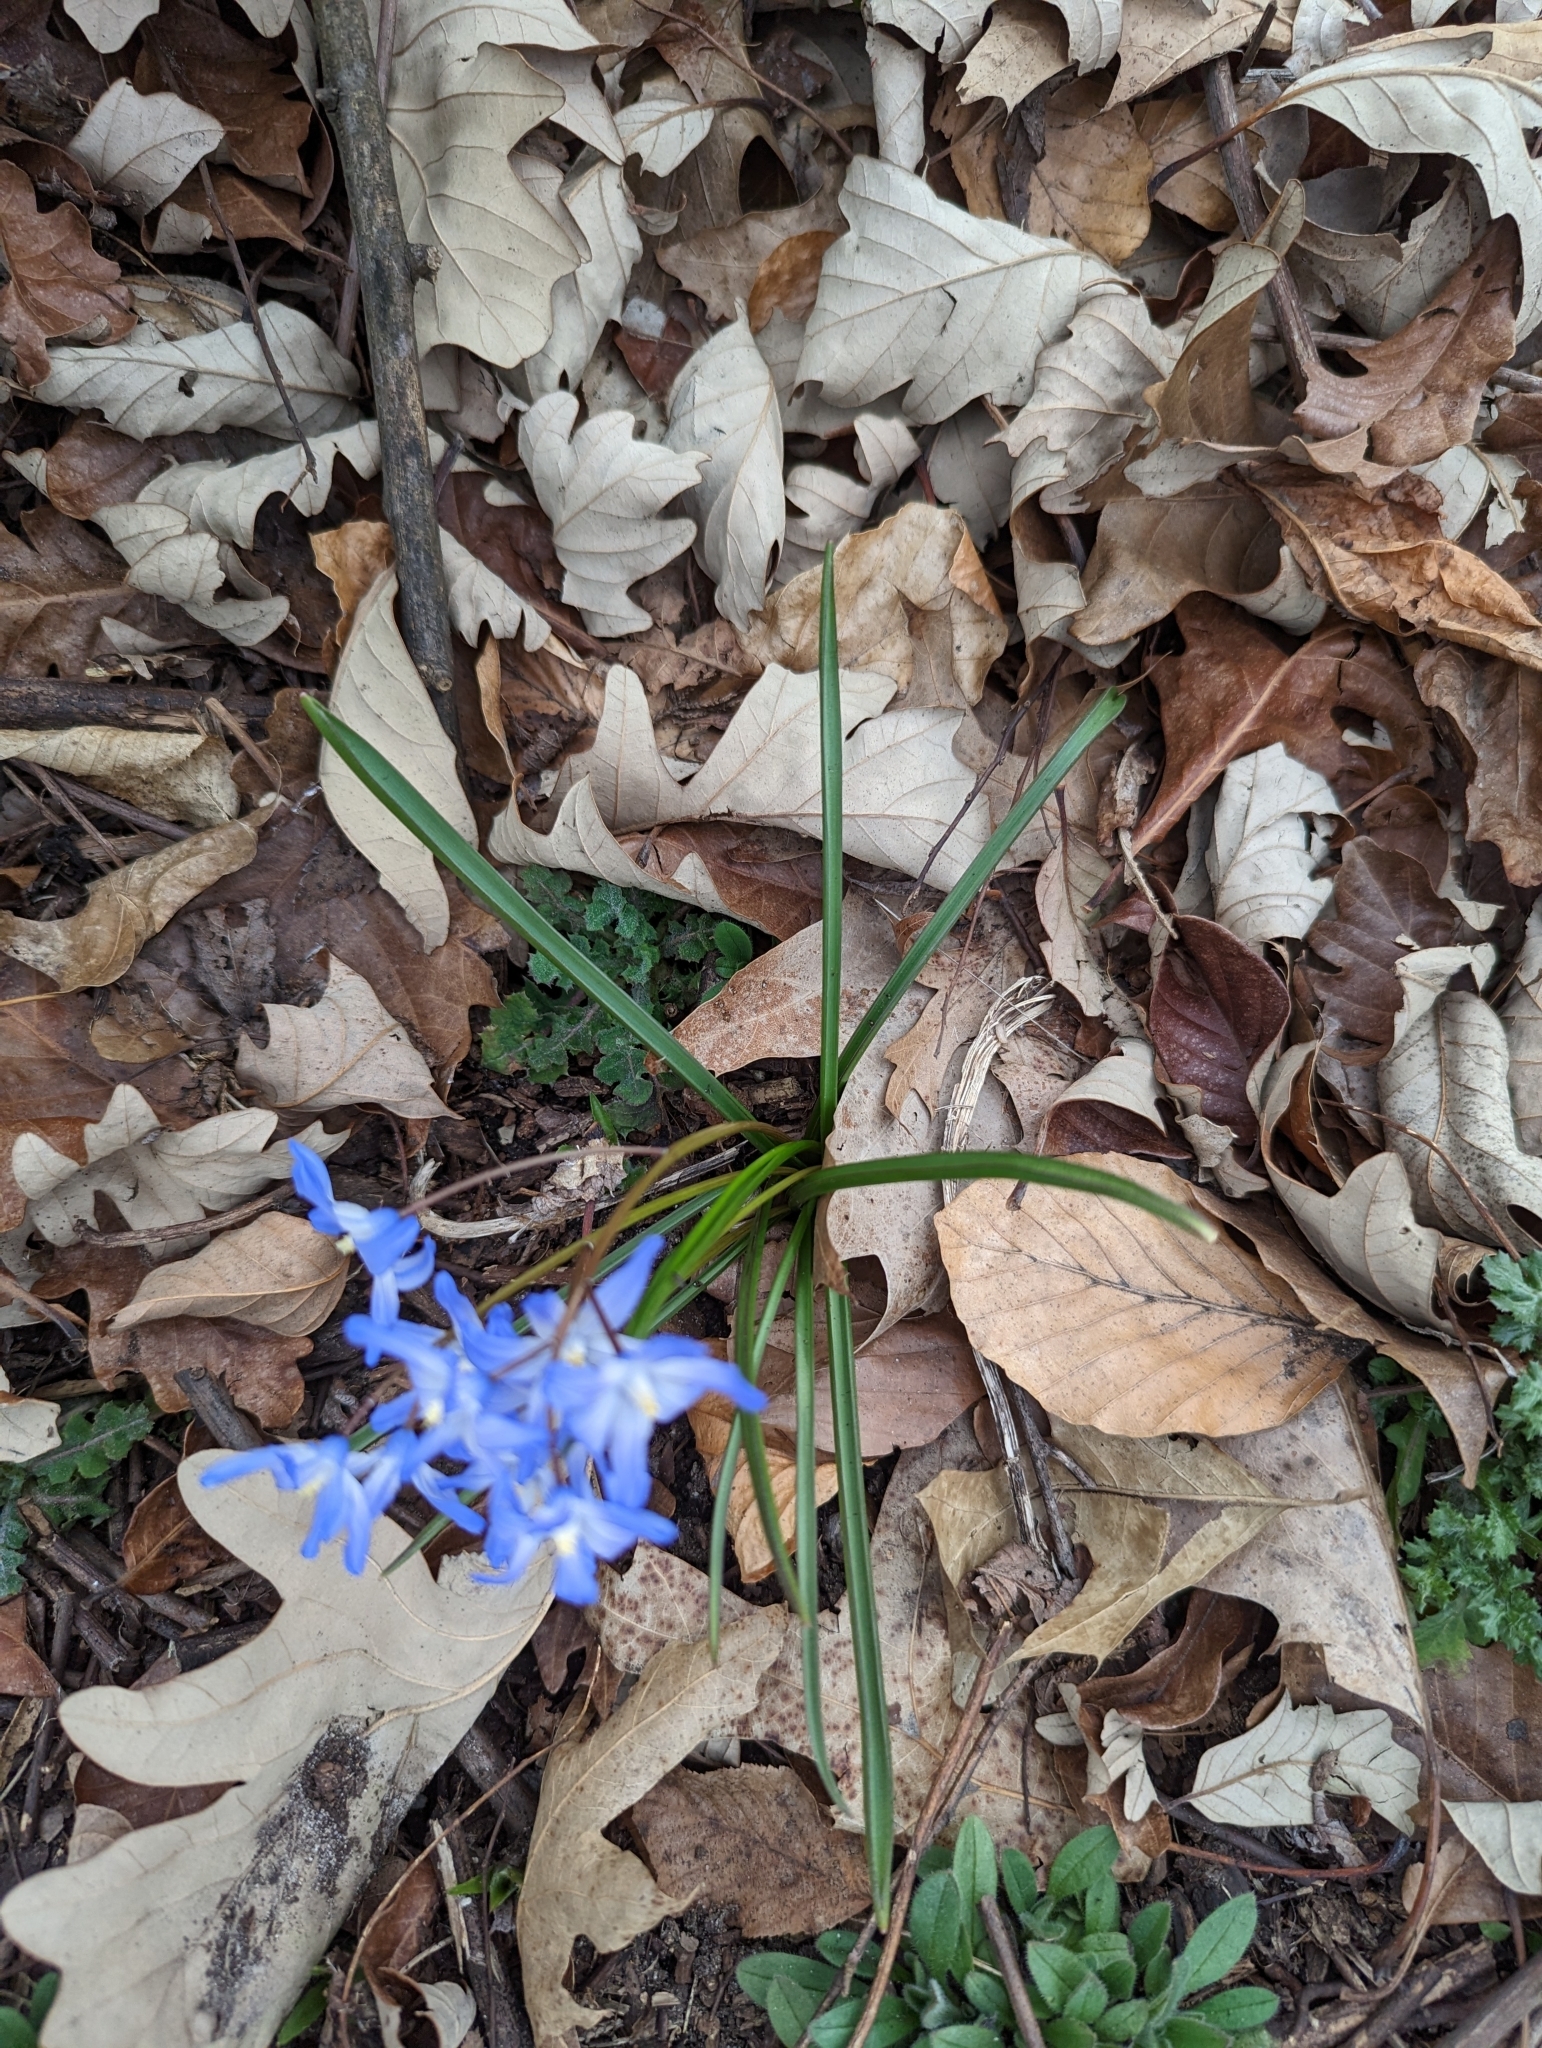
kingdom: Plantae
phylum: Tracheophyta
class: Liliopsida
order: Asparagales
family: Asparagaceae
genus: Scilla
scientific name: Scilla forbesii
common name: Glory-of-the-snow
